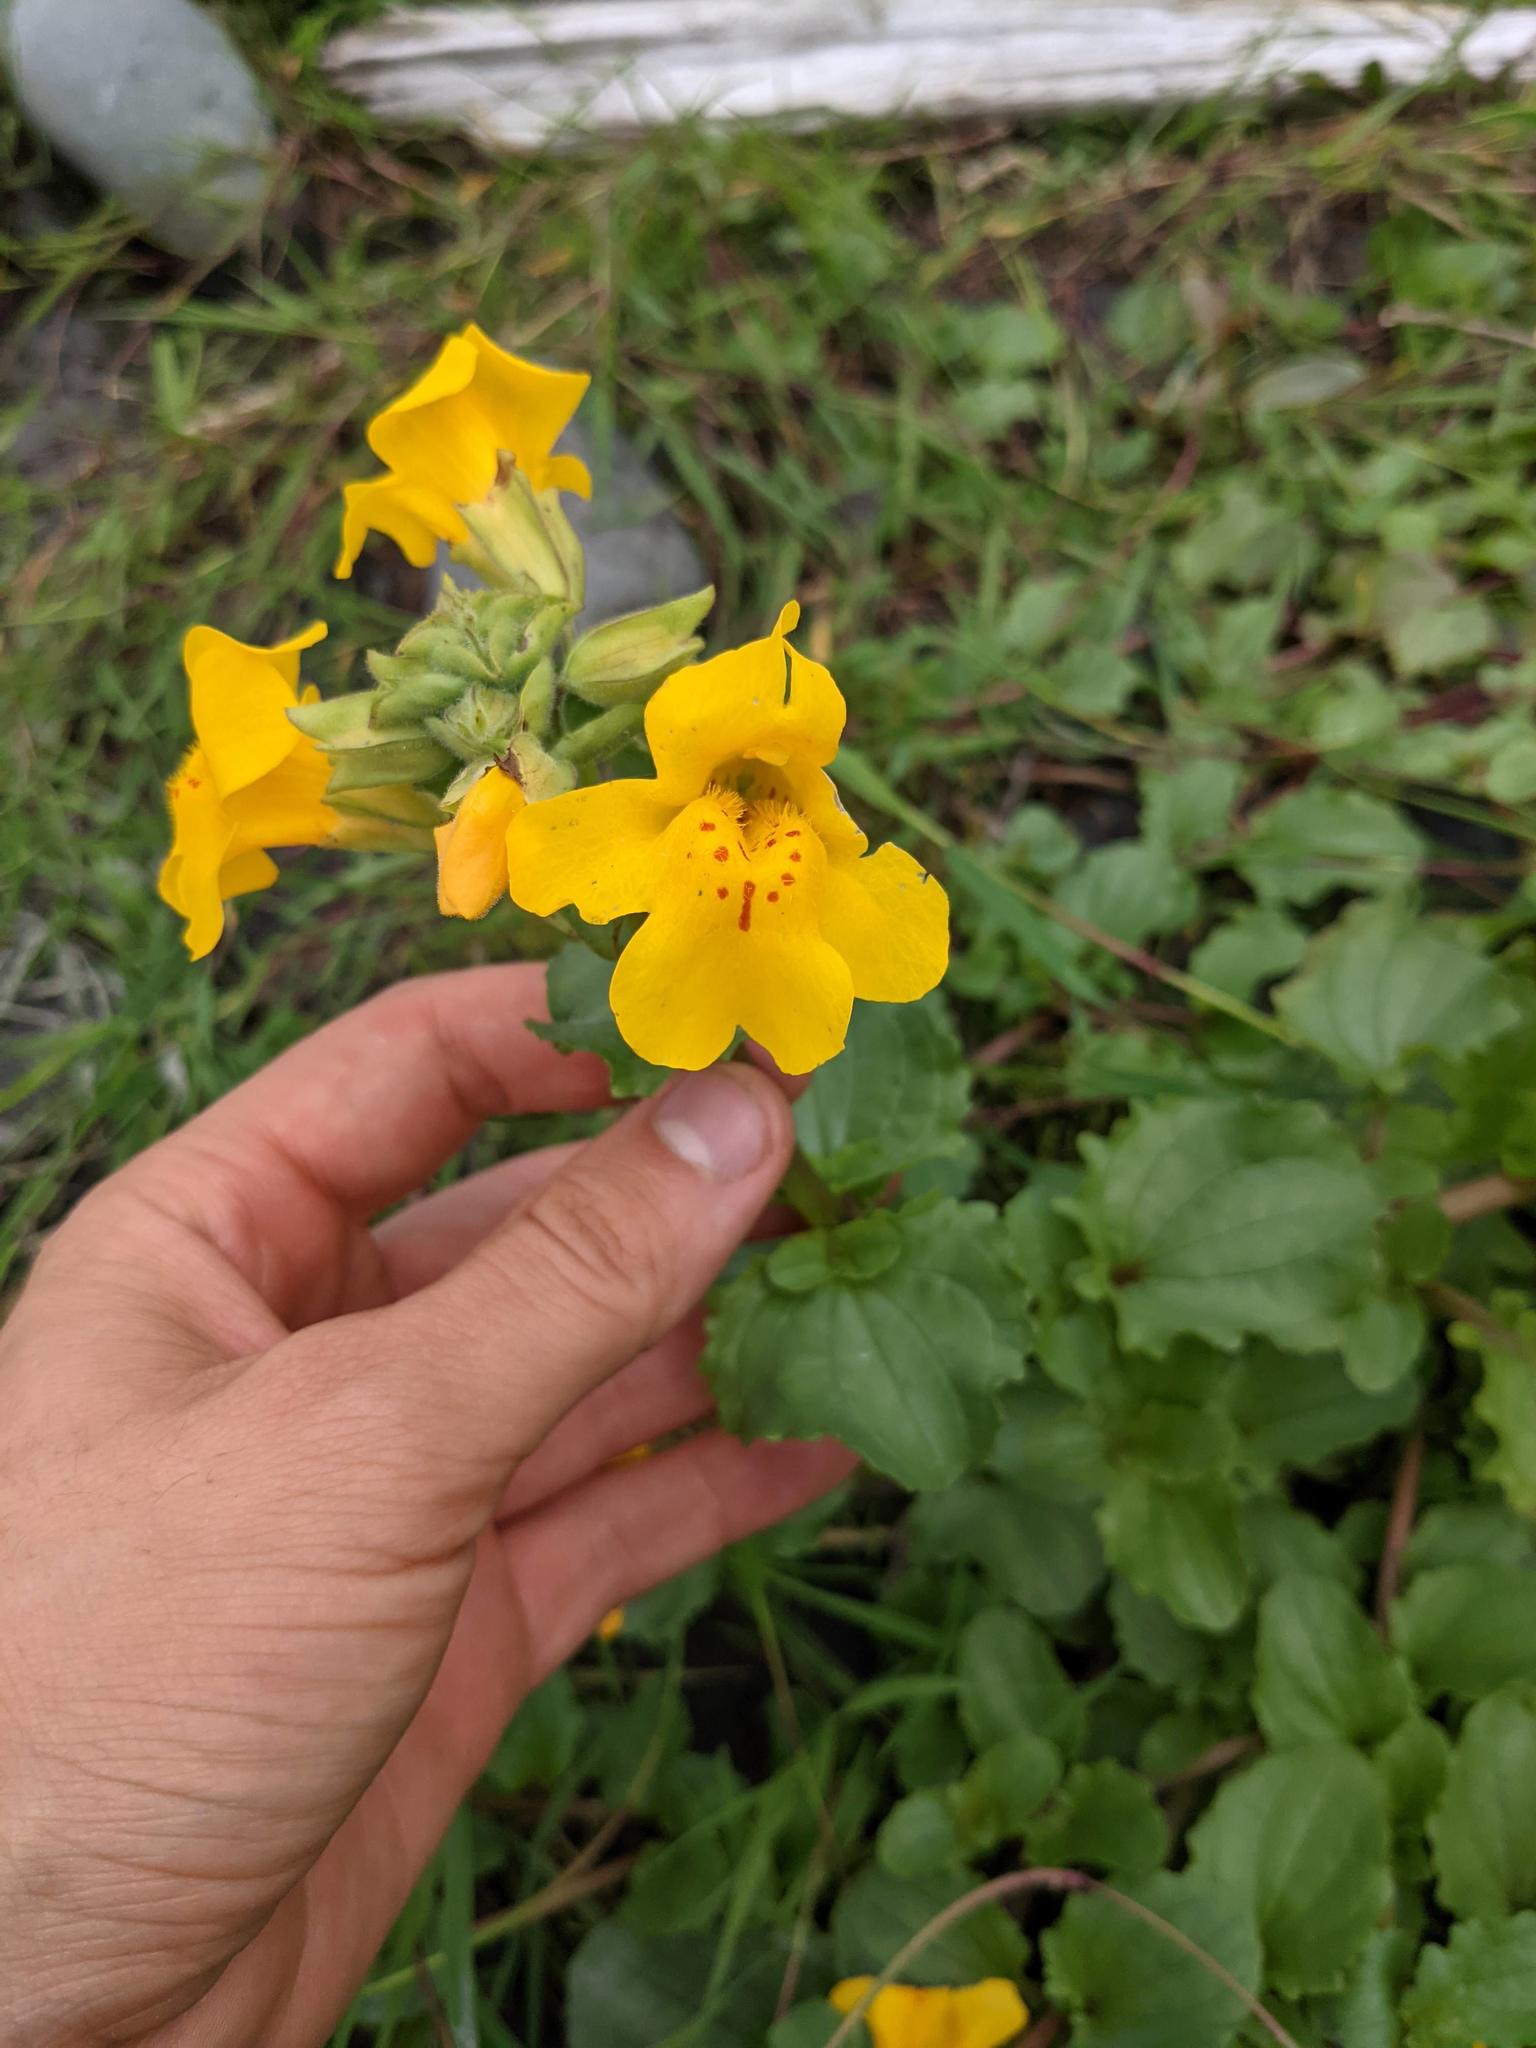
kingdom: Plantae
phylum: Tracheophyta
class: Magnoliopsida
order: Lamiales
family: Phrymaceae
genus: Erythranthe
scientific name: Erythranthe grandis
